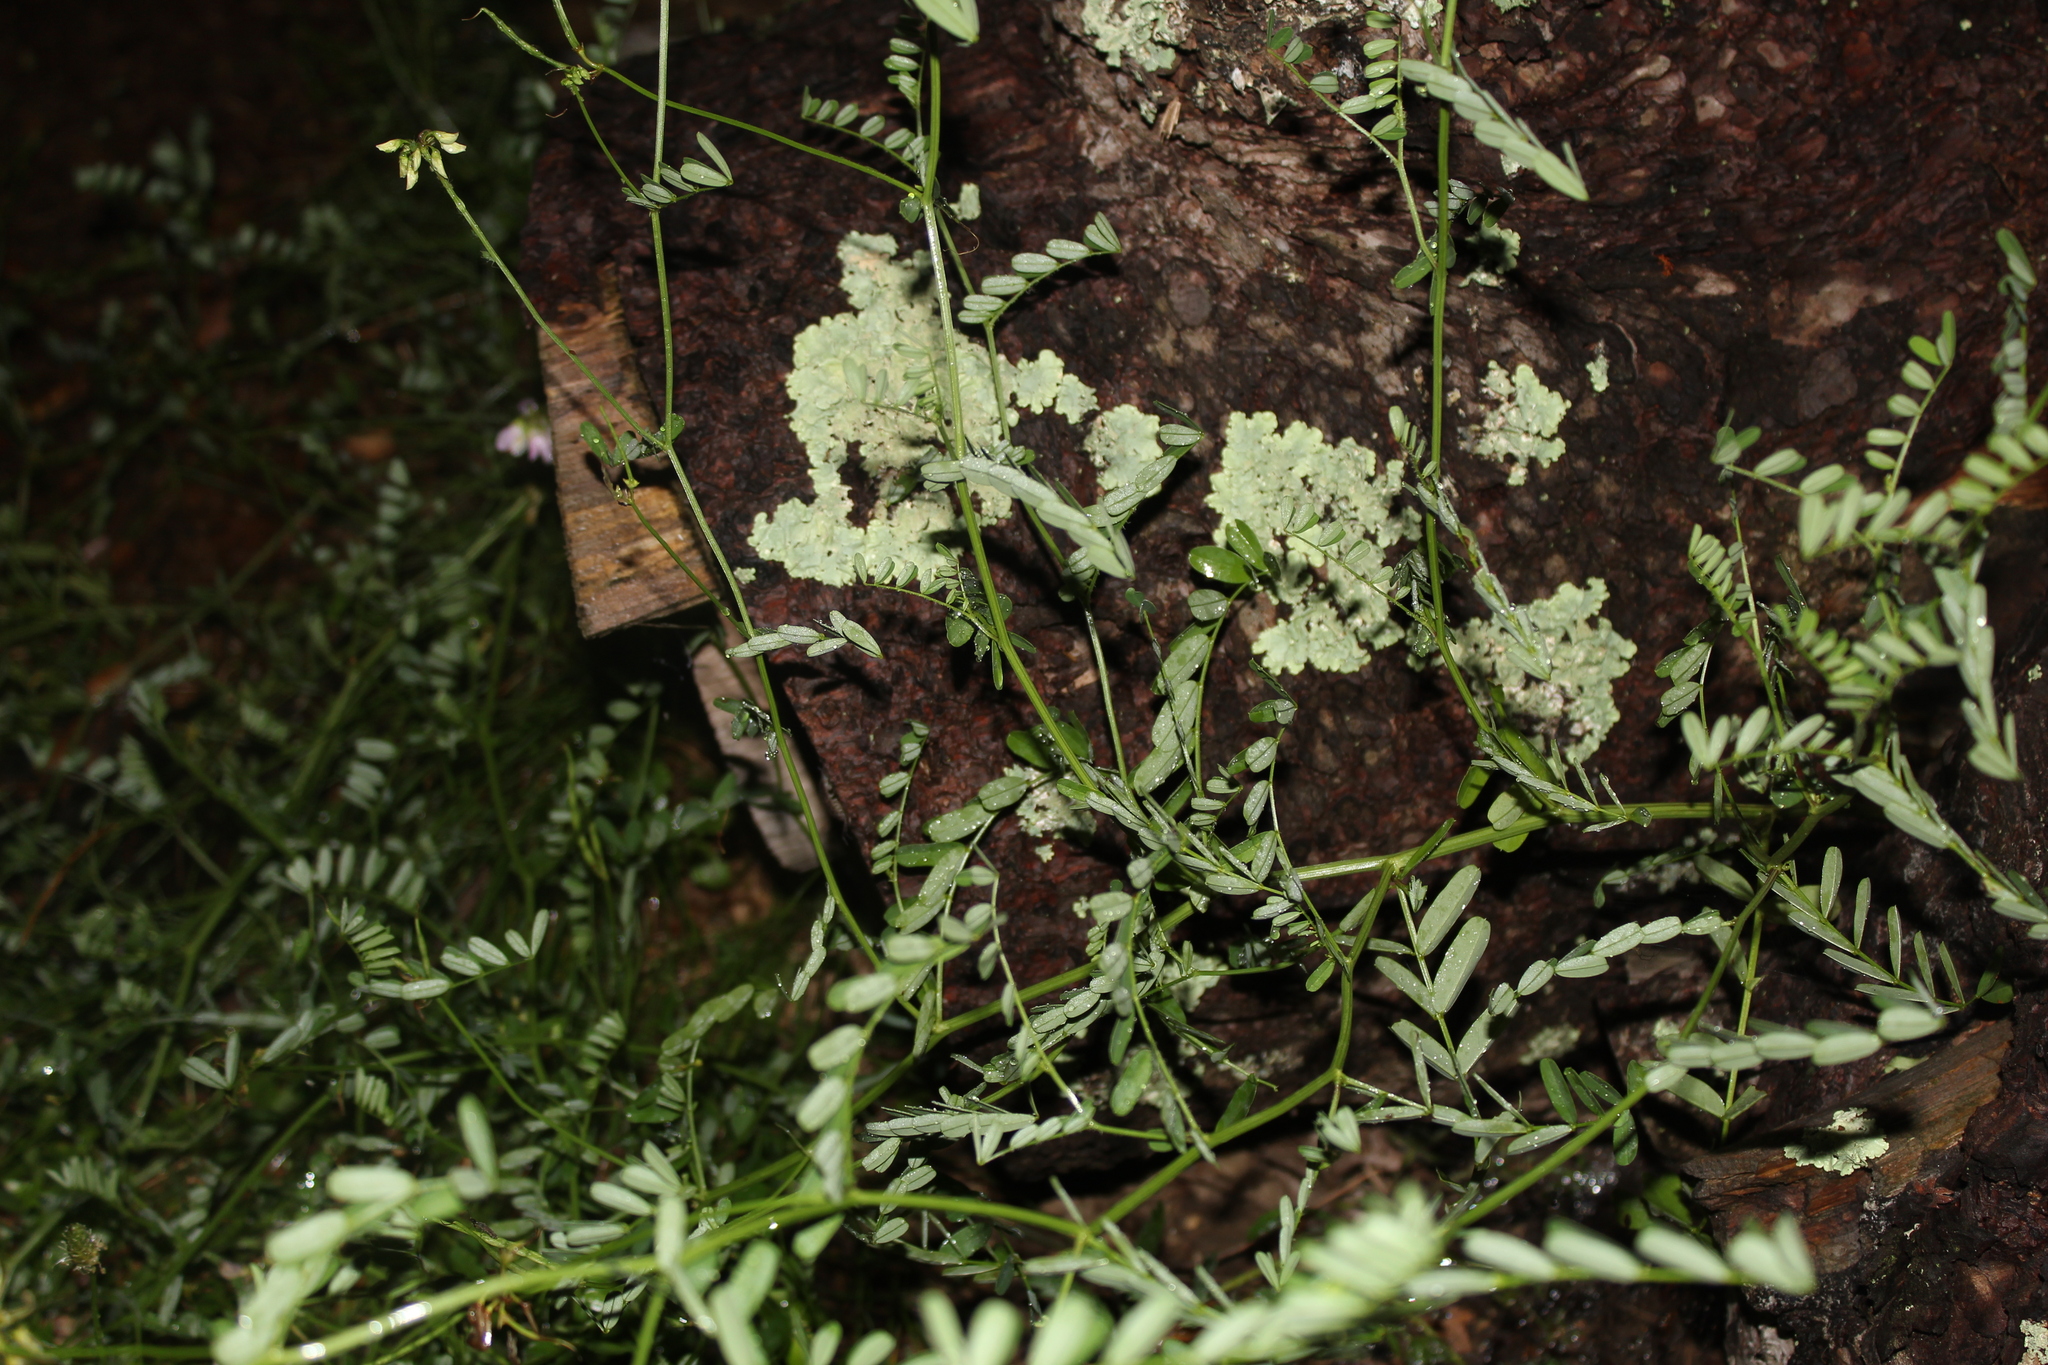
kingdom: Plantae
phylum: Tracheophyta
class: Magnoliopsida
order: Fabales
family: Fabaceae
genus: Coronilla
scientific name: Coronilla varia
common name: Crownvetch
